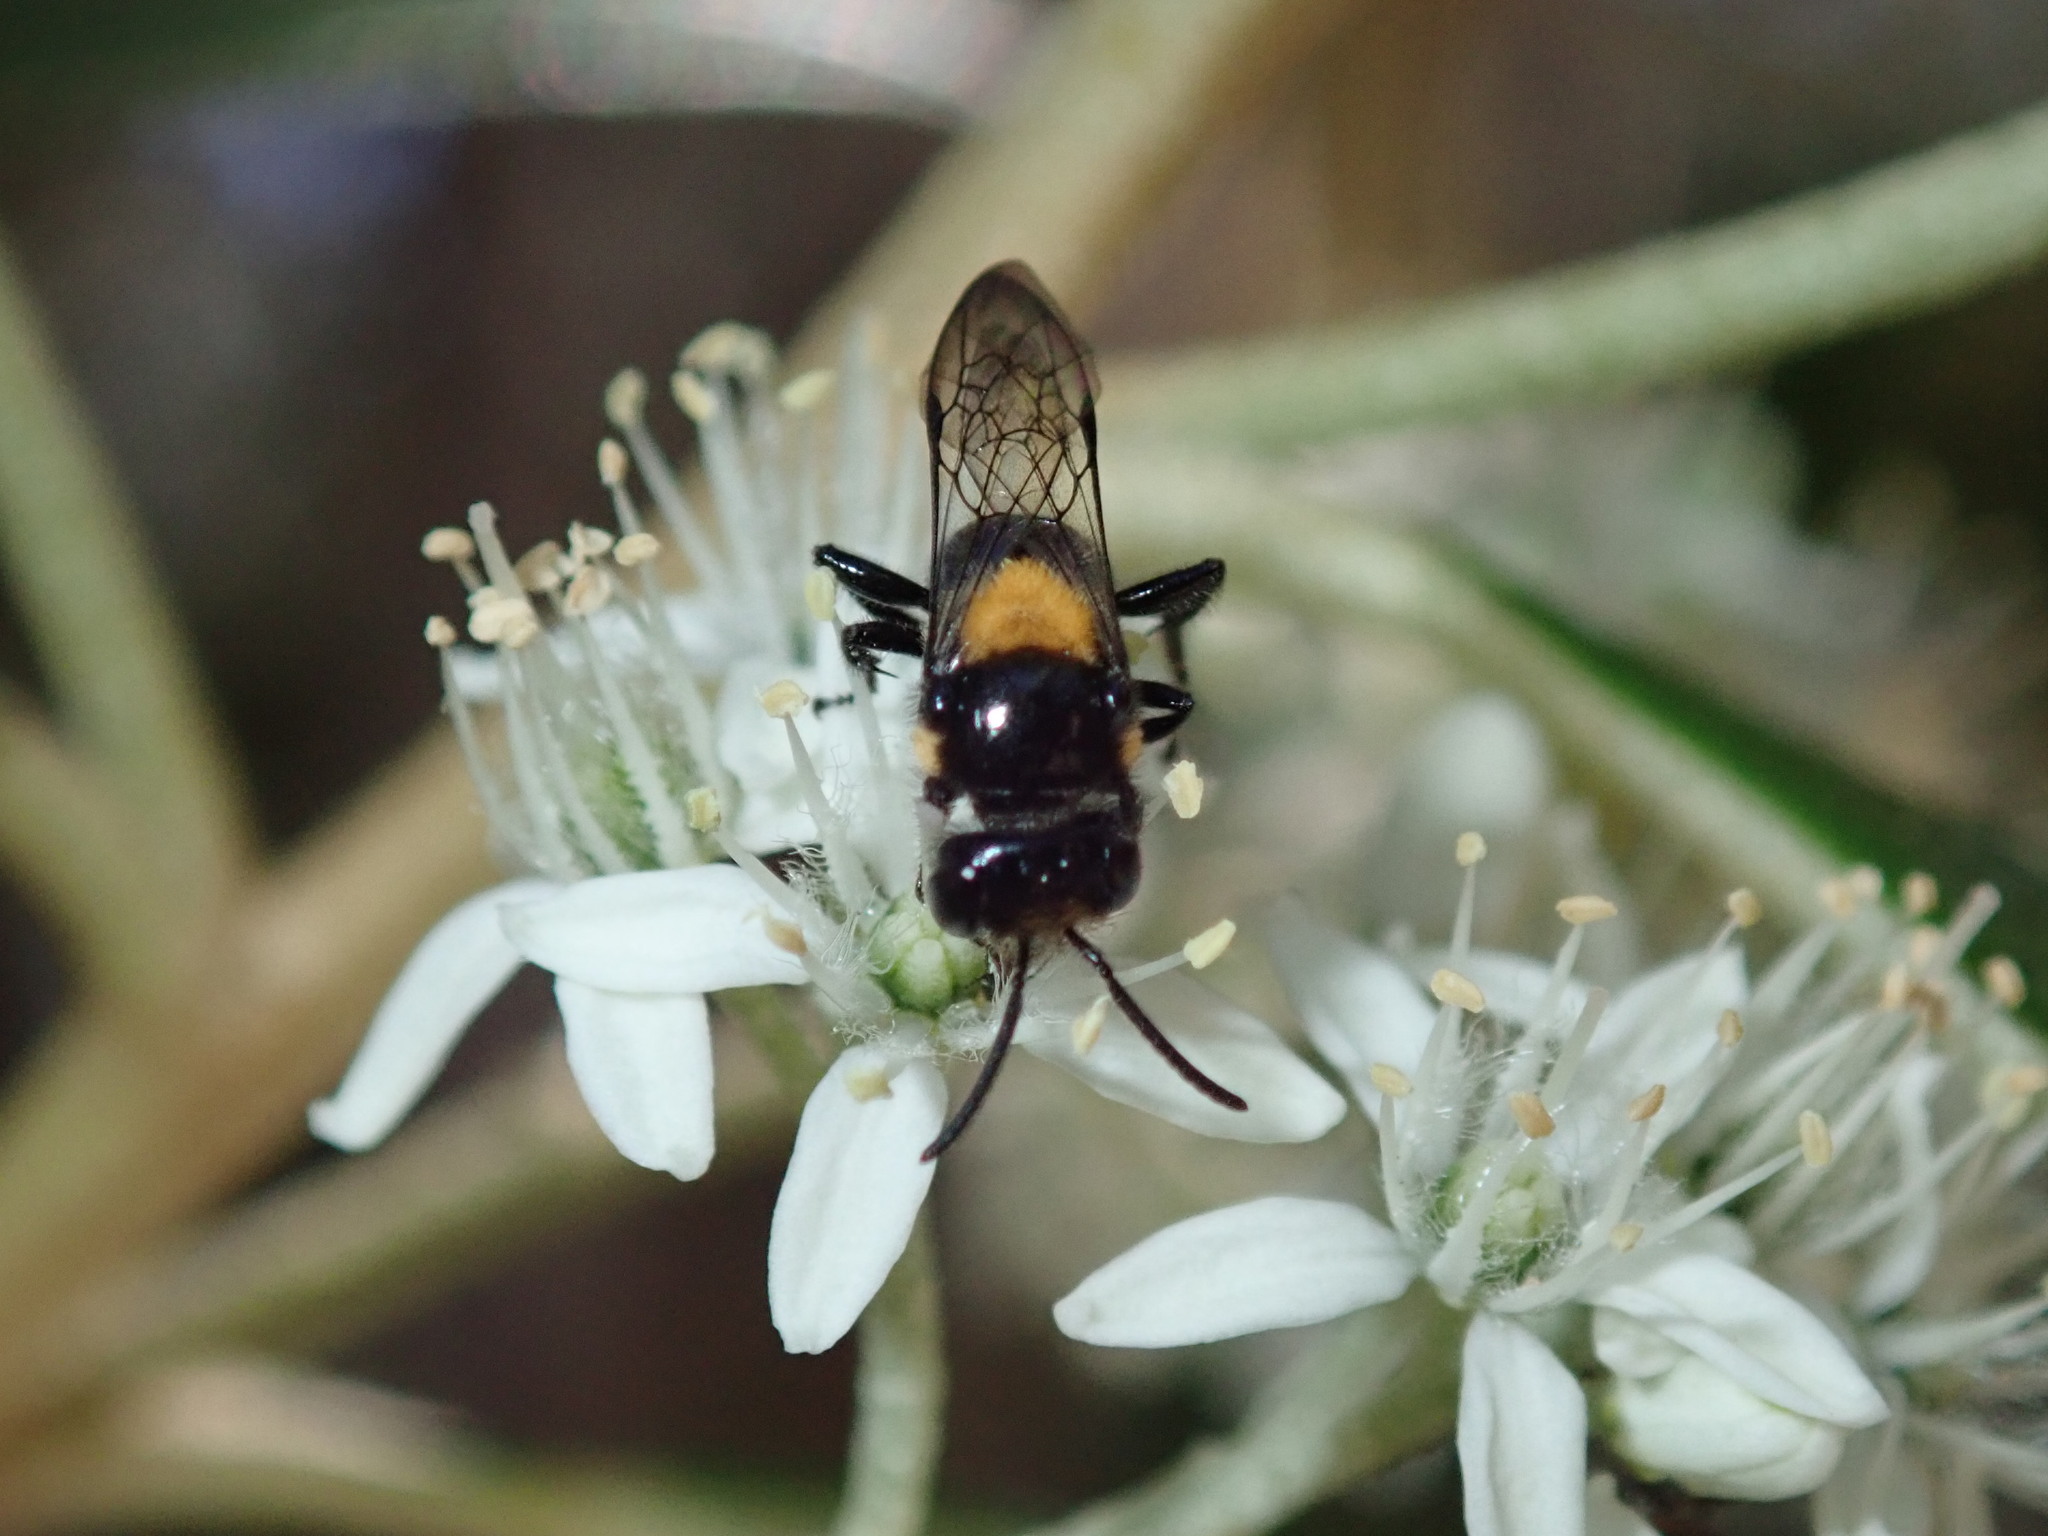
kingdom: Animalia
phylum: Arthropoda
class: Insecta
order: Hymenoptera
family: Colletidae
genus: Leioproctus
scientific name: Leioproctus flavomaculatus
